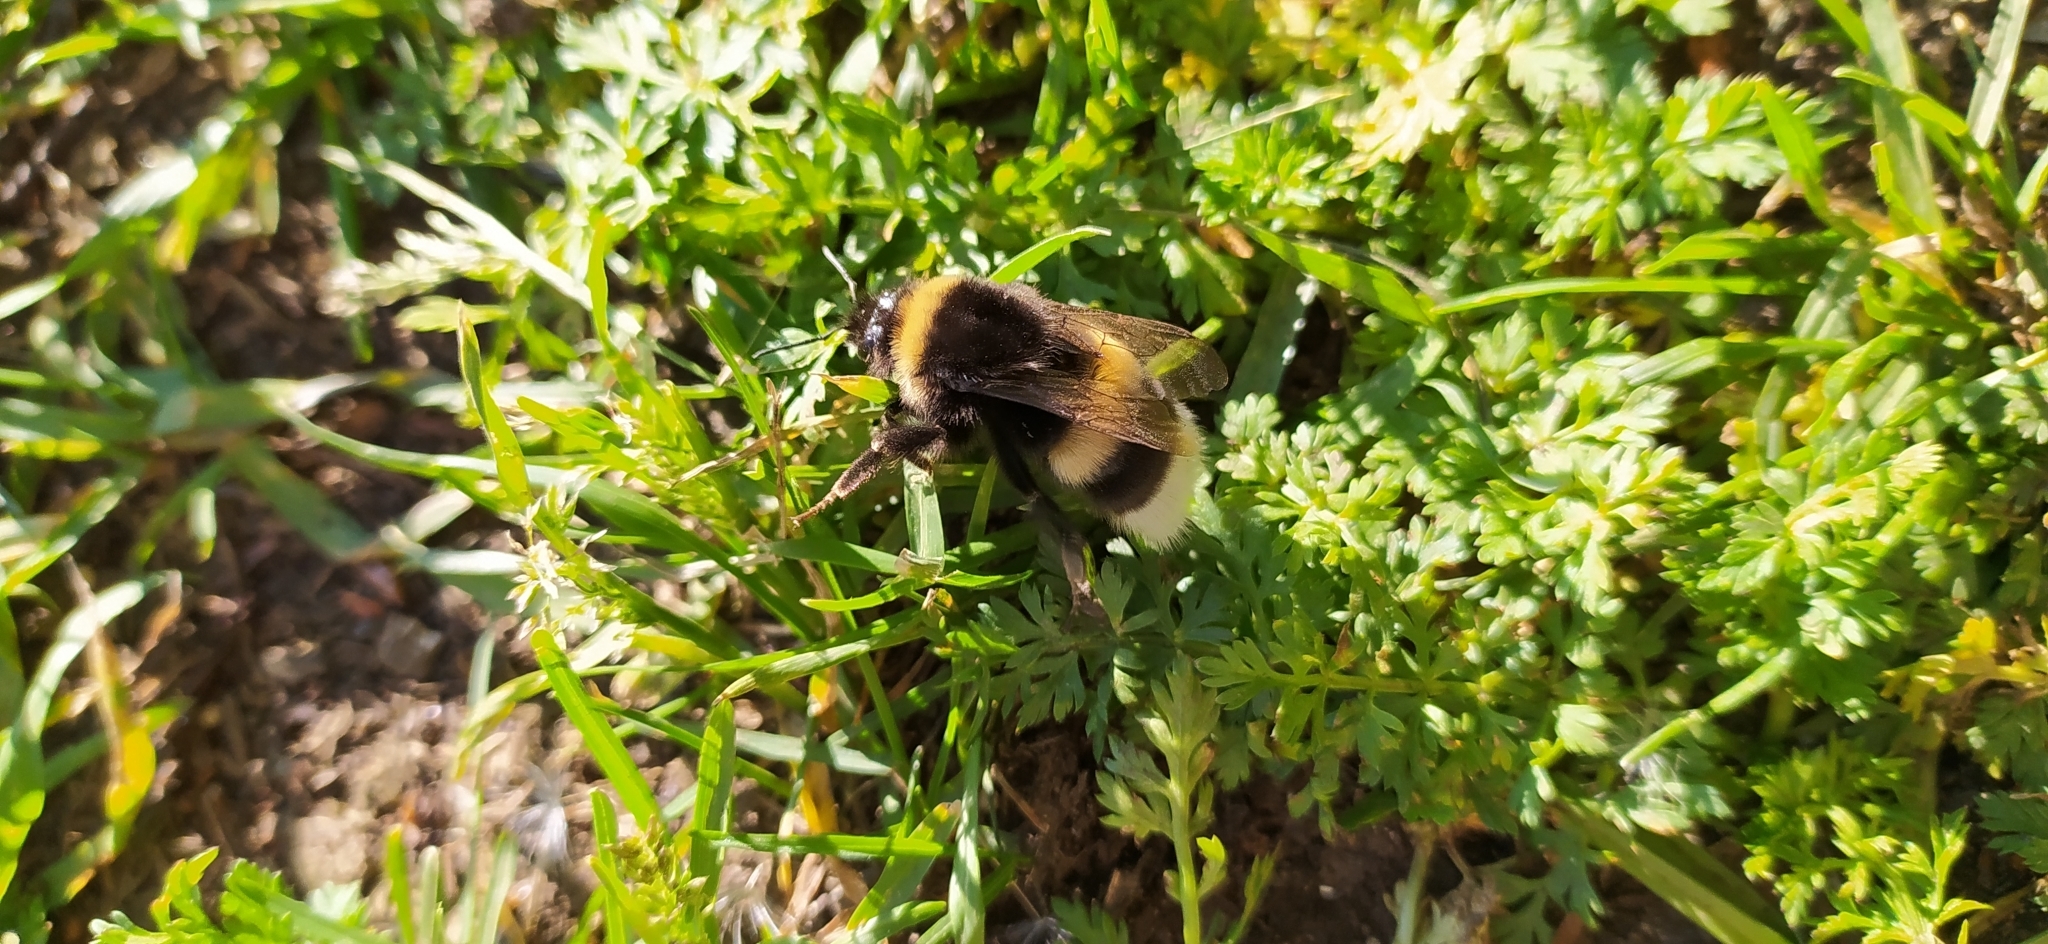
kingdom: Animalia
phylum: Arthropoda
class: Insecta
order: Hymenoptera
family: Apidae
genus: Bombus
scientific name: Bombus
